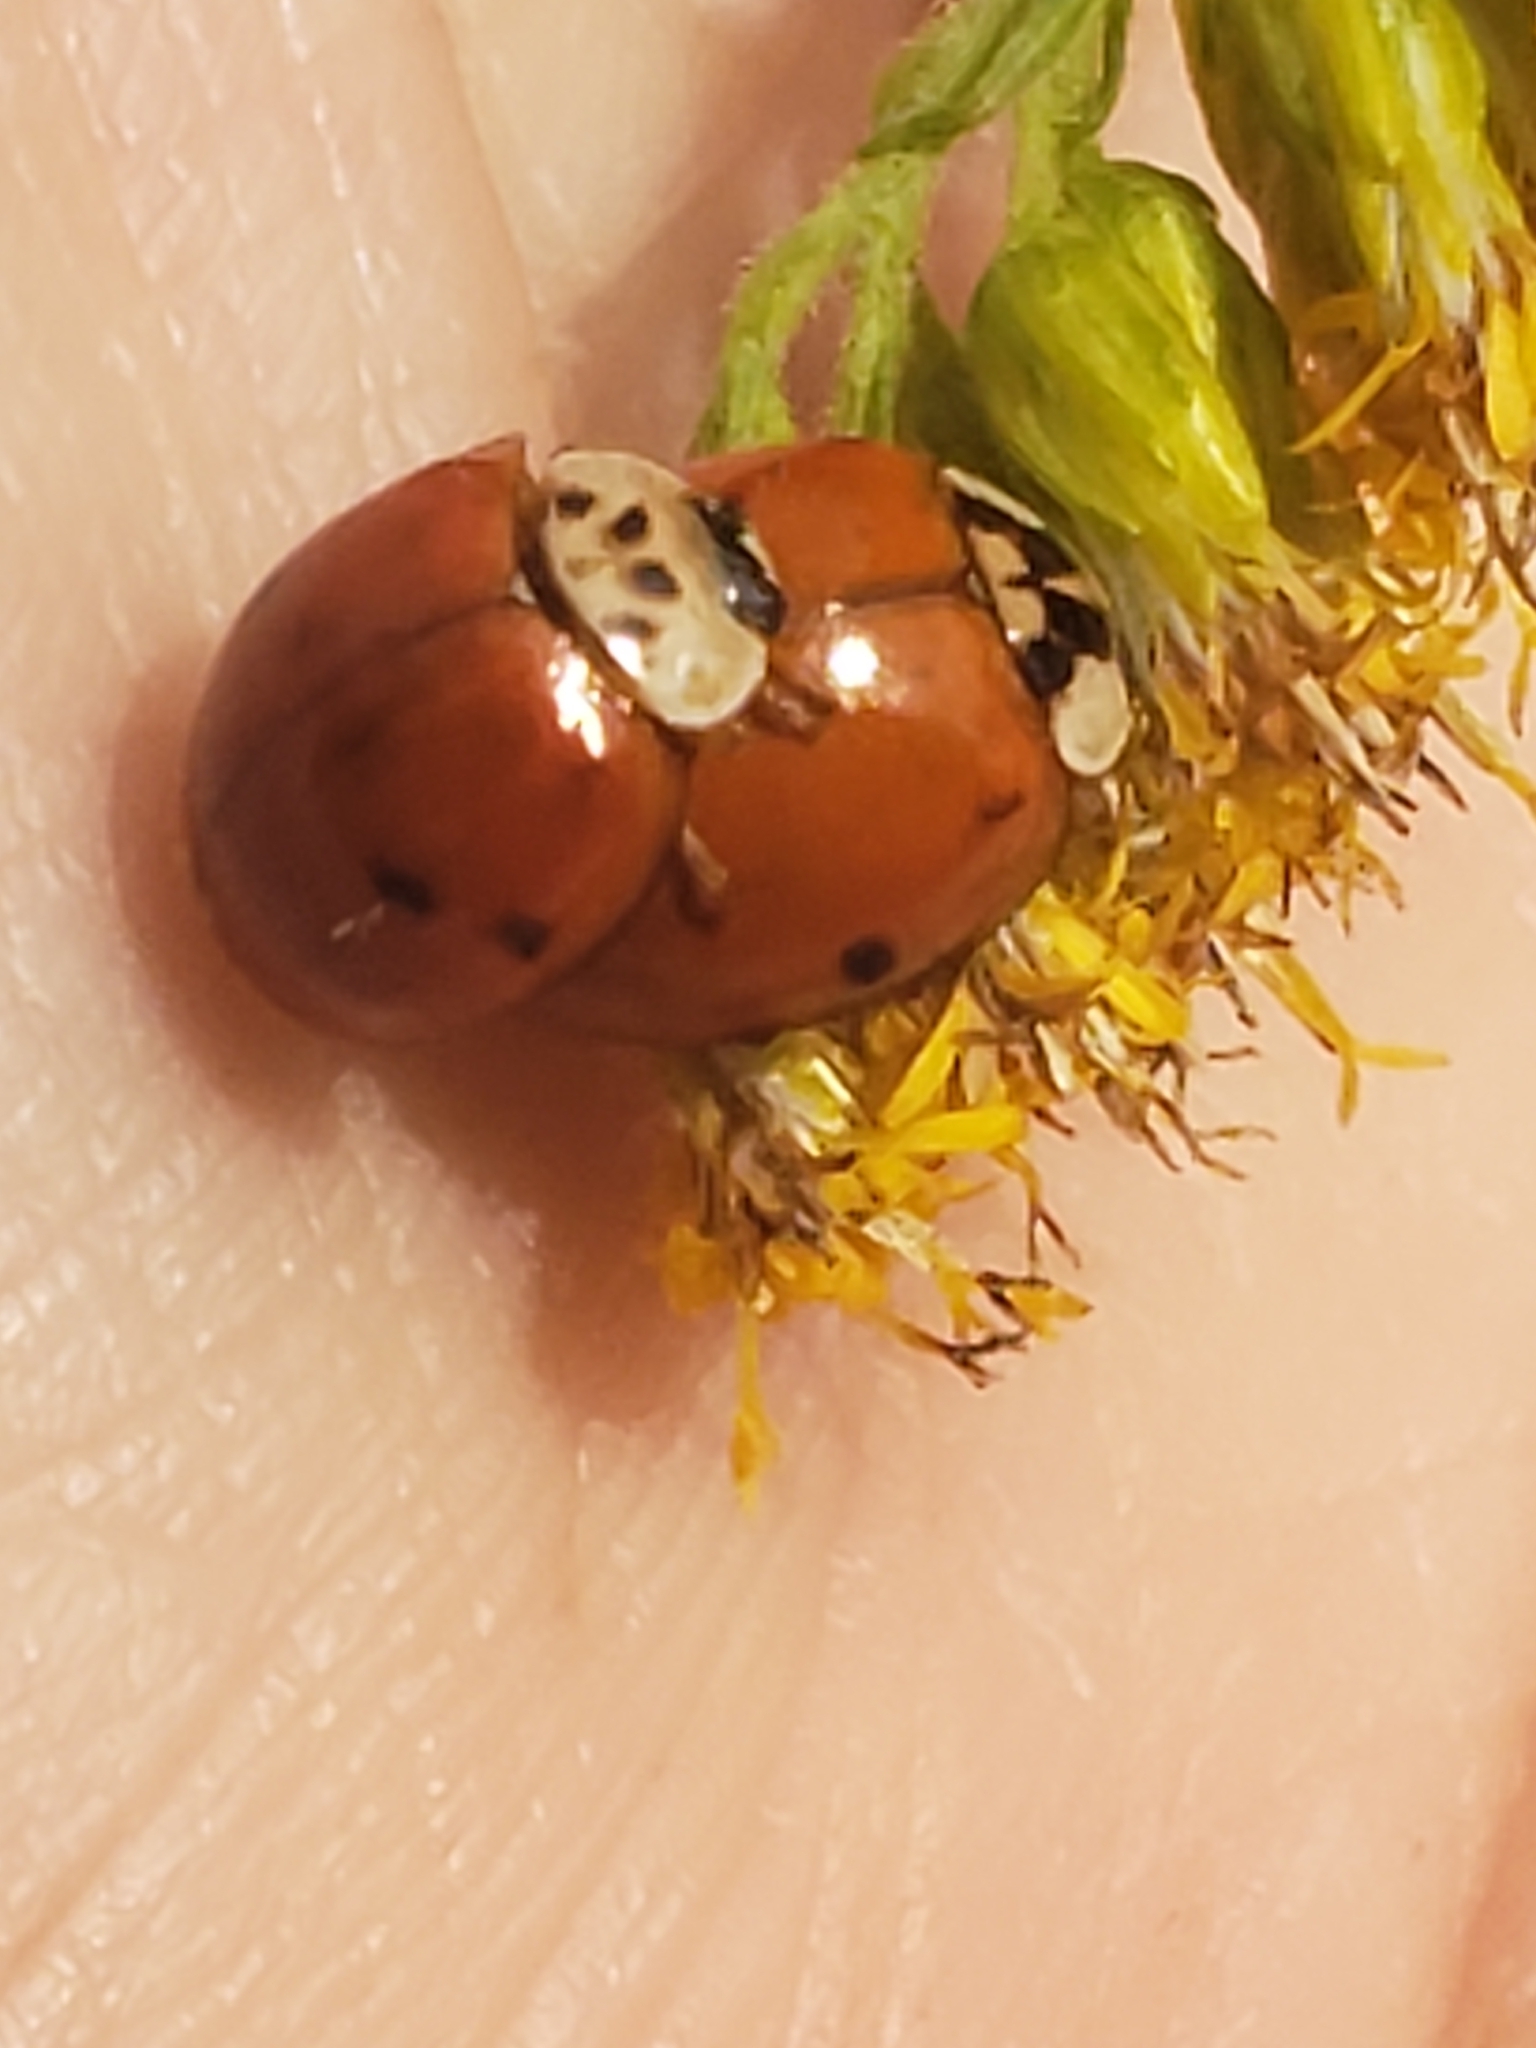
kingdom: Animalia
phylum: Arthropoda
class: Insecta
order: Coleoptera
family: Coccinellidae
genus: Harmonia
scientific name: Harmonia axyridis
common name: Harlequin ladybird
